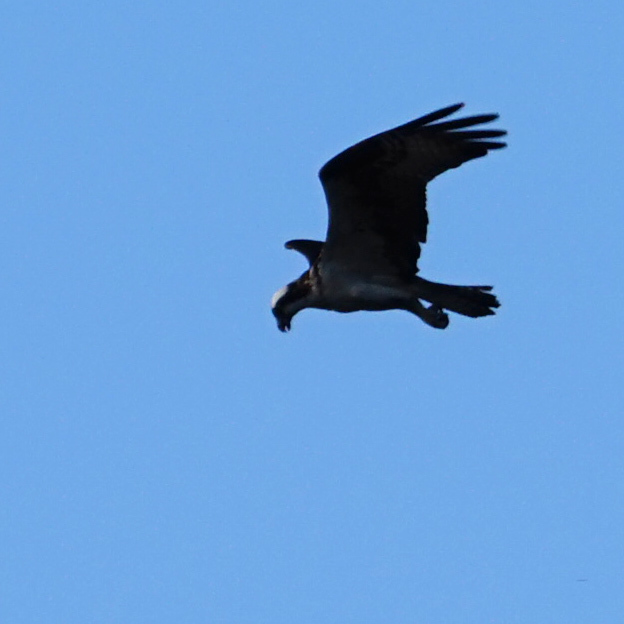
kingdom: Animalia
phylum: Chordata
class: Aves
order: Accipitriformes
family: Pandionidae
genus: Pandion
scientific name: Pandion haliaetus
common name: Osprey
